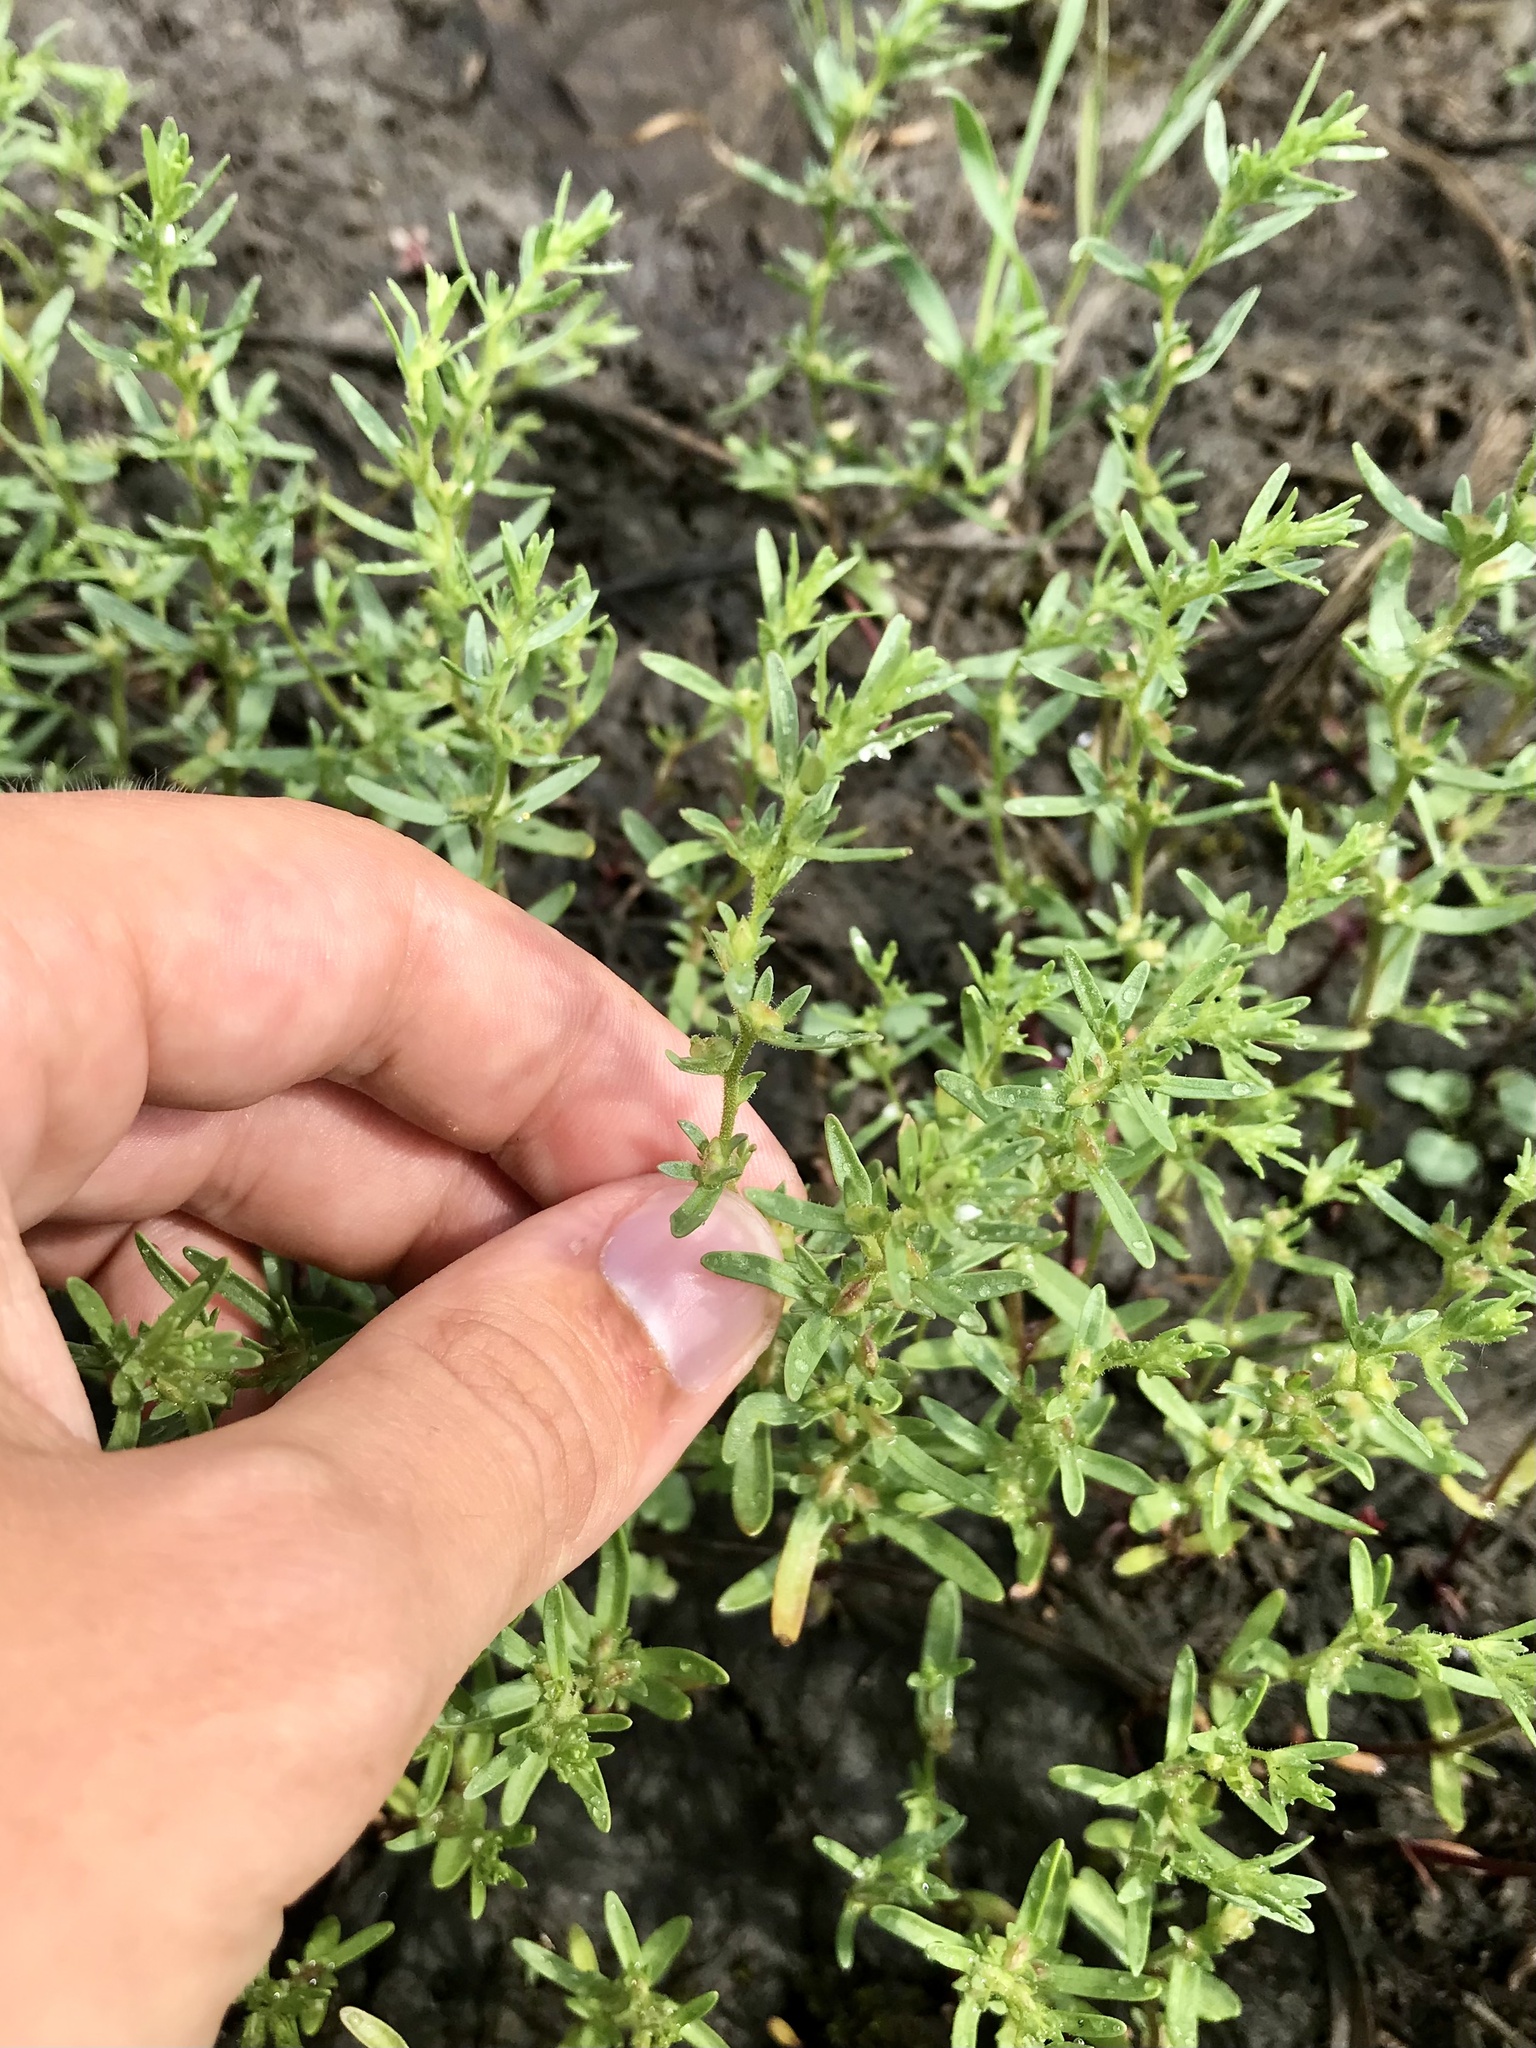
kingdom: Plantae
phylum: Tracheophyta
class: Magnoliopsida
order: Lamiales
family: Plantaginaceae
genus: Veronica
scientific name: Veronica peregrina
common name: Neckweed
